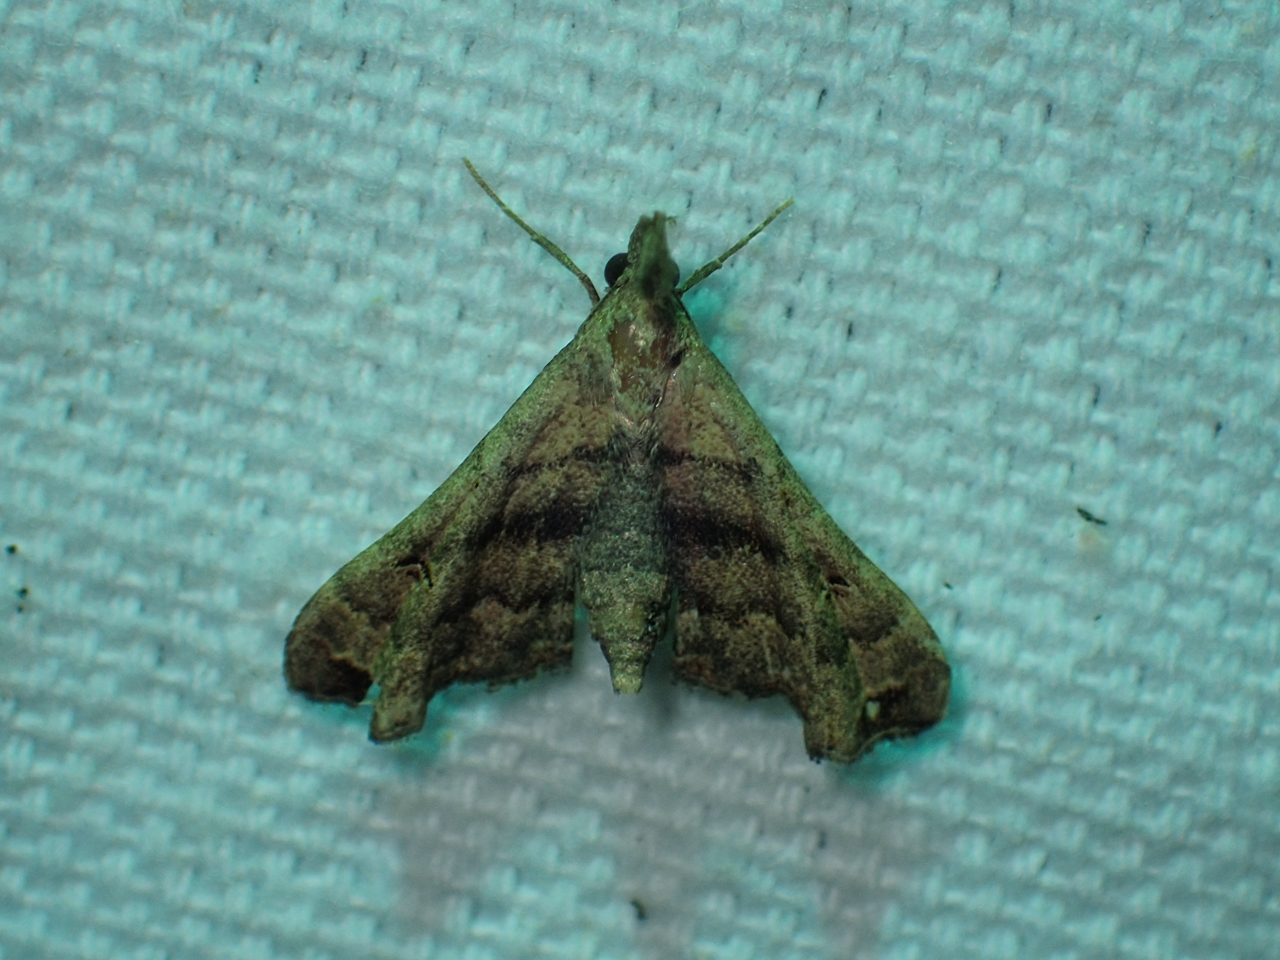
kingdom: Animalia
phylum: Arthropoda
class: Insecta
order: Lepidoptera
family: Erebidae
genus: Palthis
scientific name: Palthis asopialis
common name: Faint-spotted palthis moth
